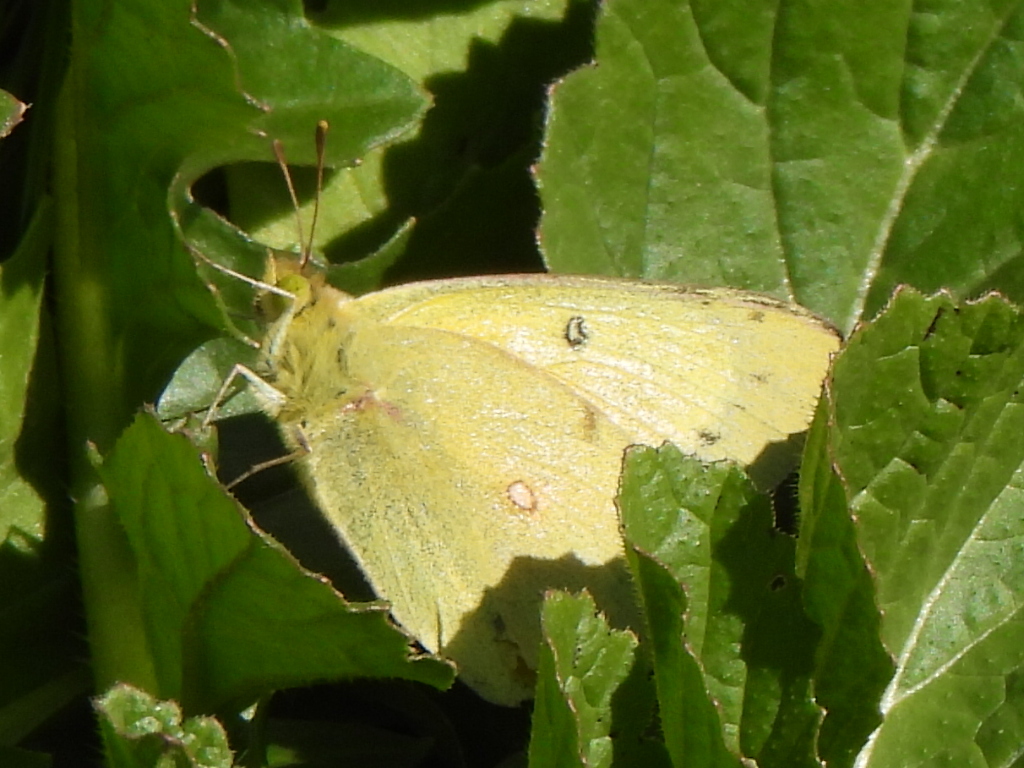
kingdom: Animalia
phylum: Arthropoda
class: Insecta
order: Lepidoptera
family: Pieridae
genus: Colias
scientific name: Colias eurytheme
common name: Alfalfa butterfly
